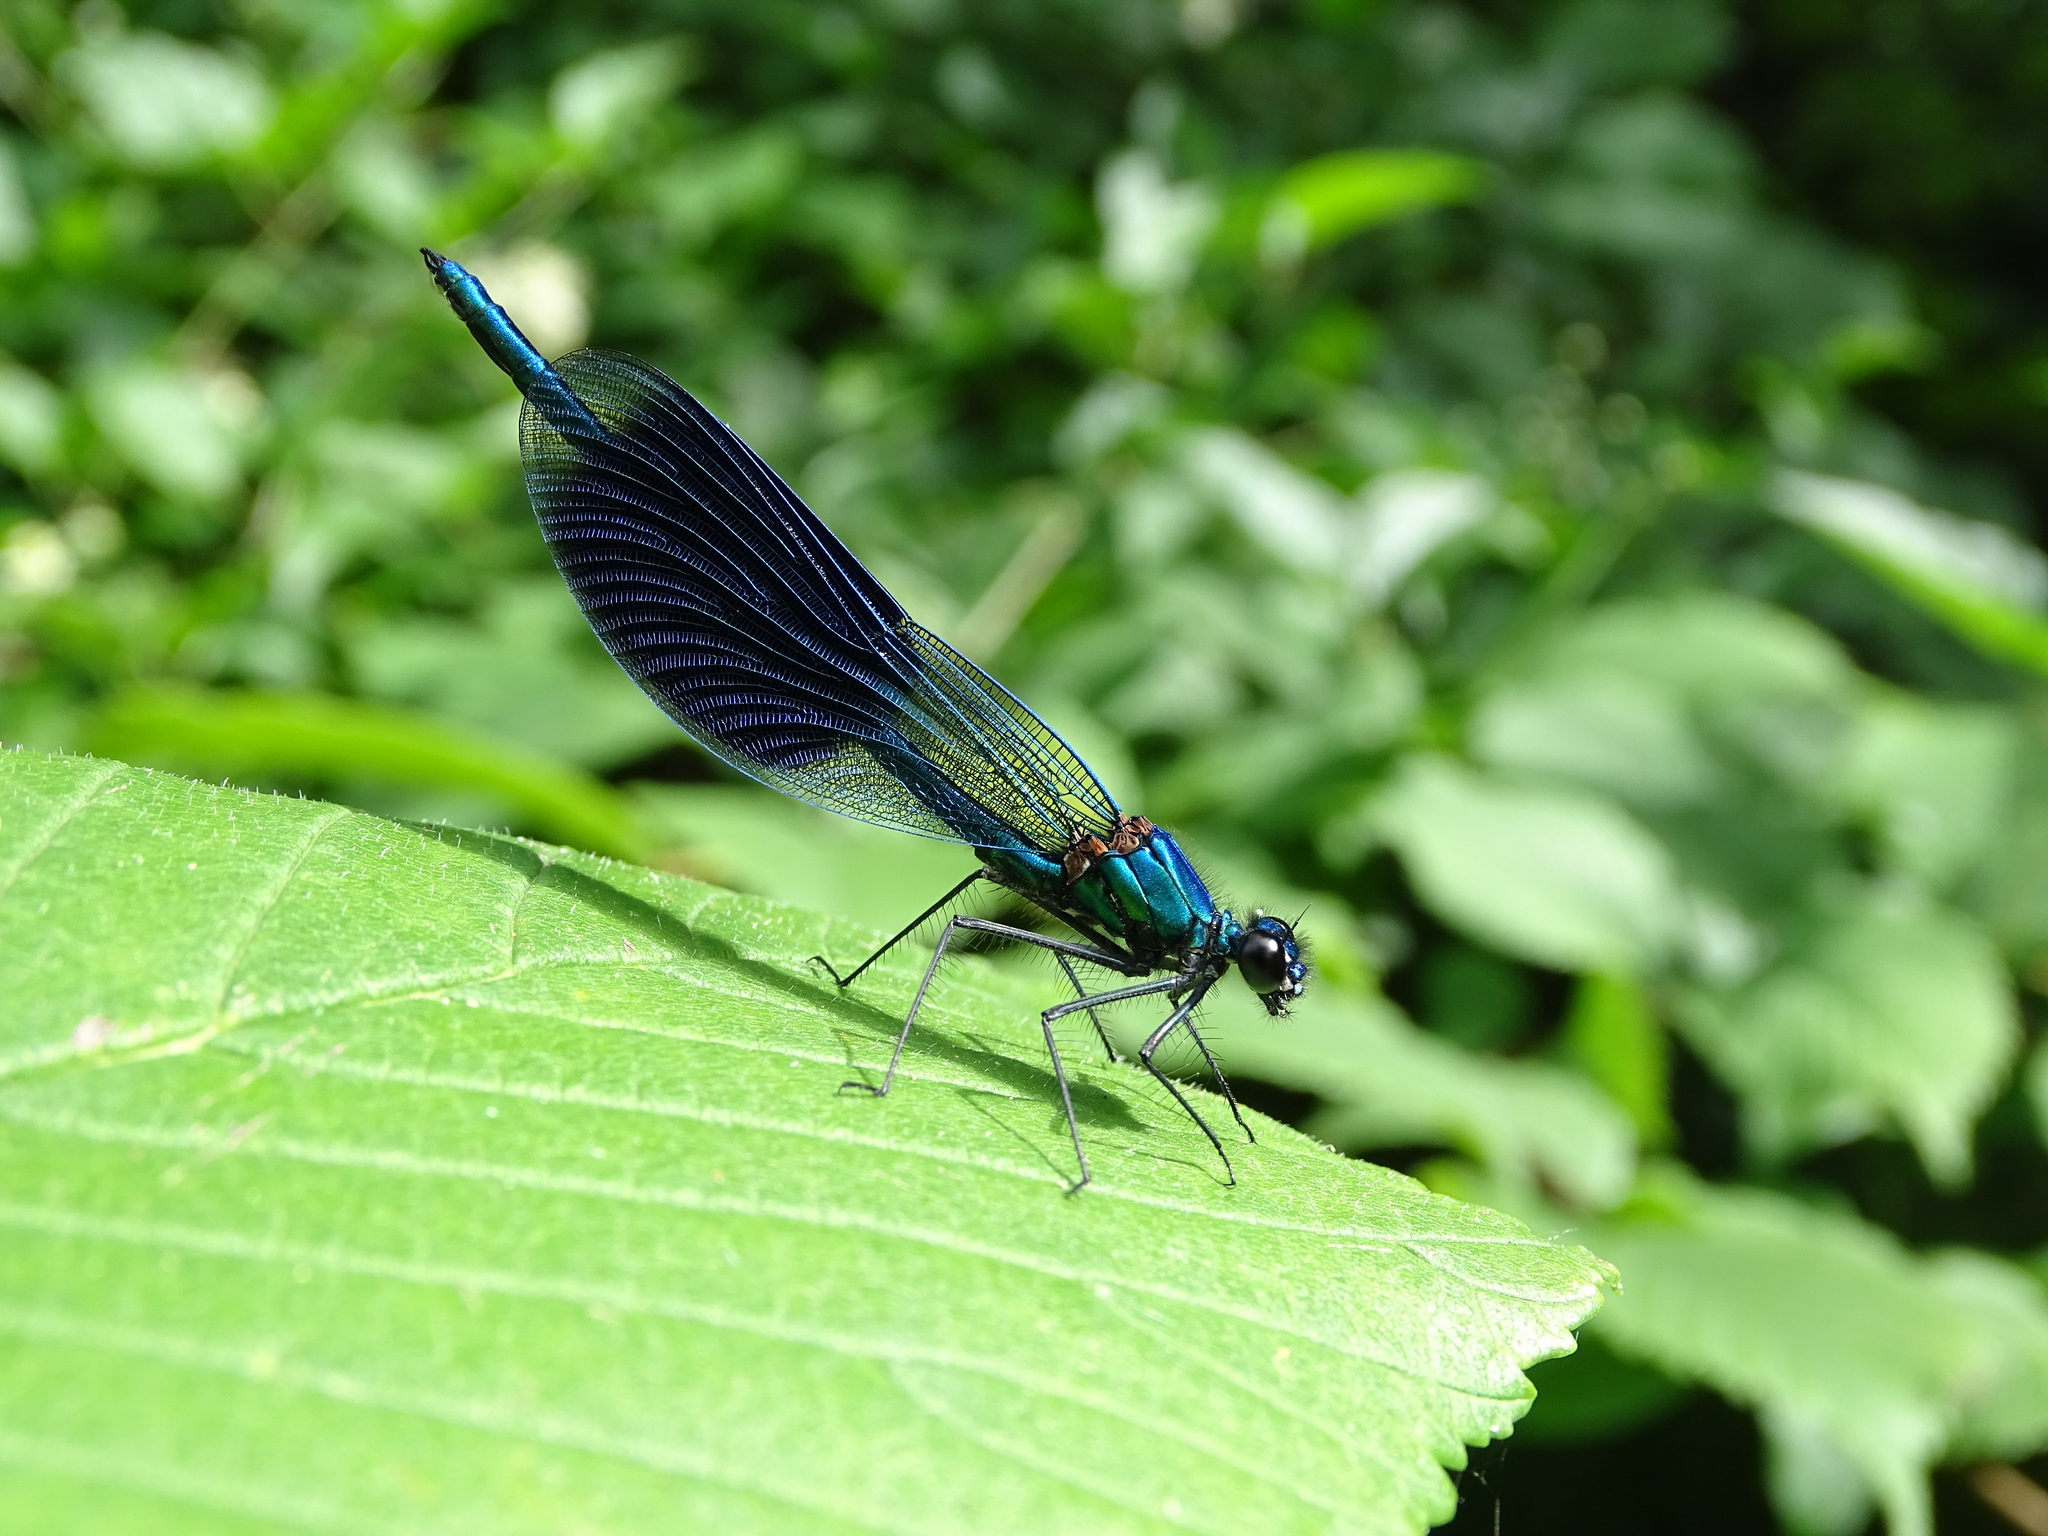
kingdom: Animalia
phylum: Arthropoda
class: Insecta
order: Odonata
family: Calopterygidae
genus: Calopteryx
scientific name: Calopteryx splendens
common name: Banded demoiselle
